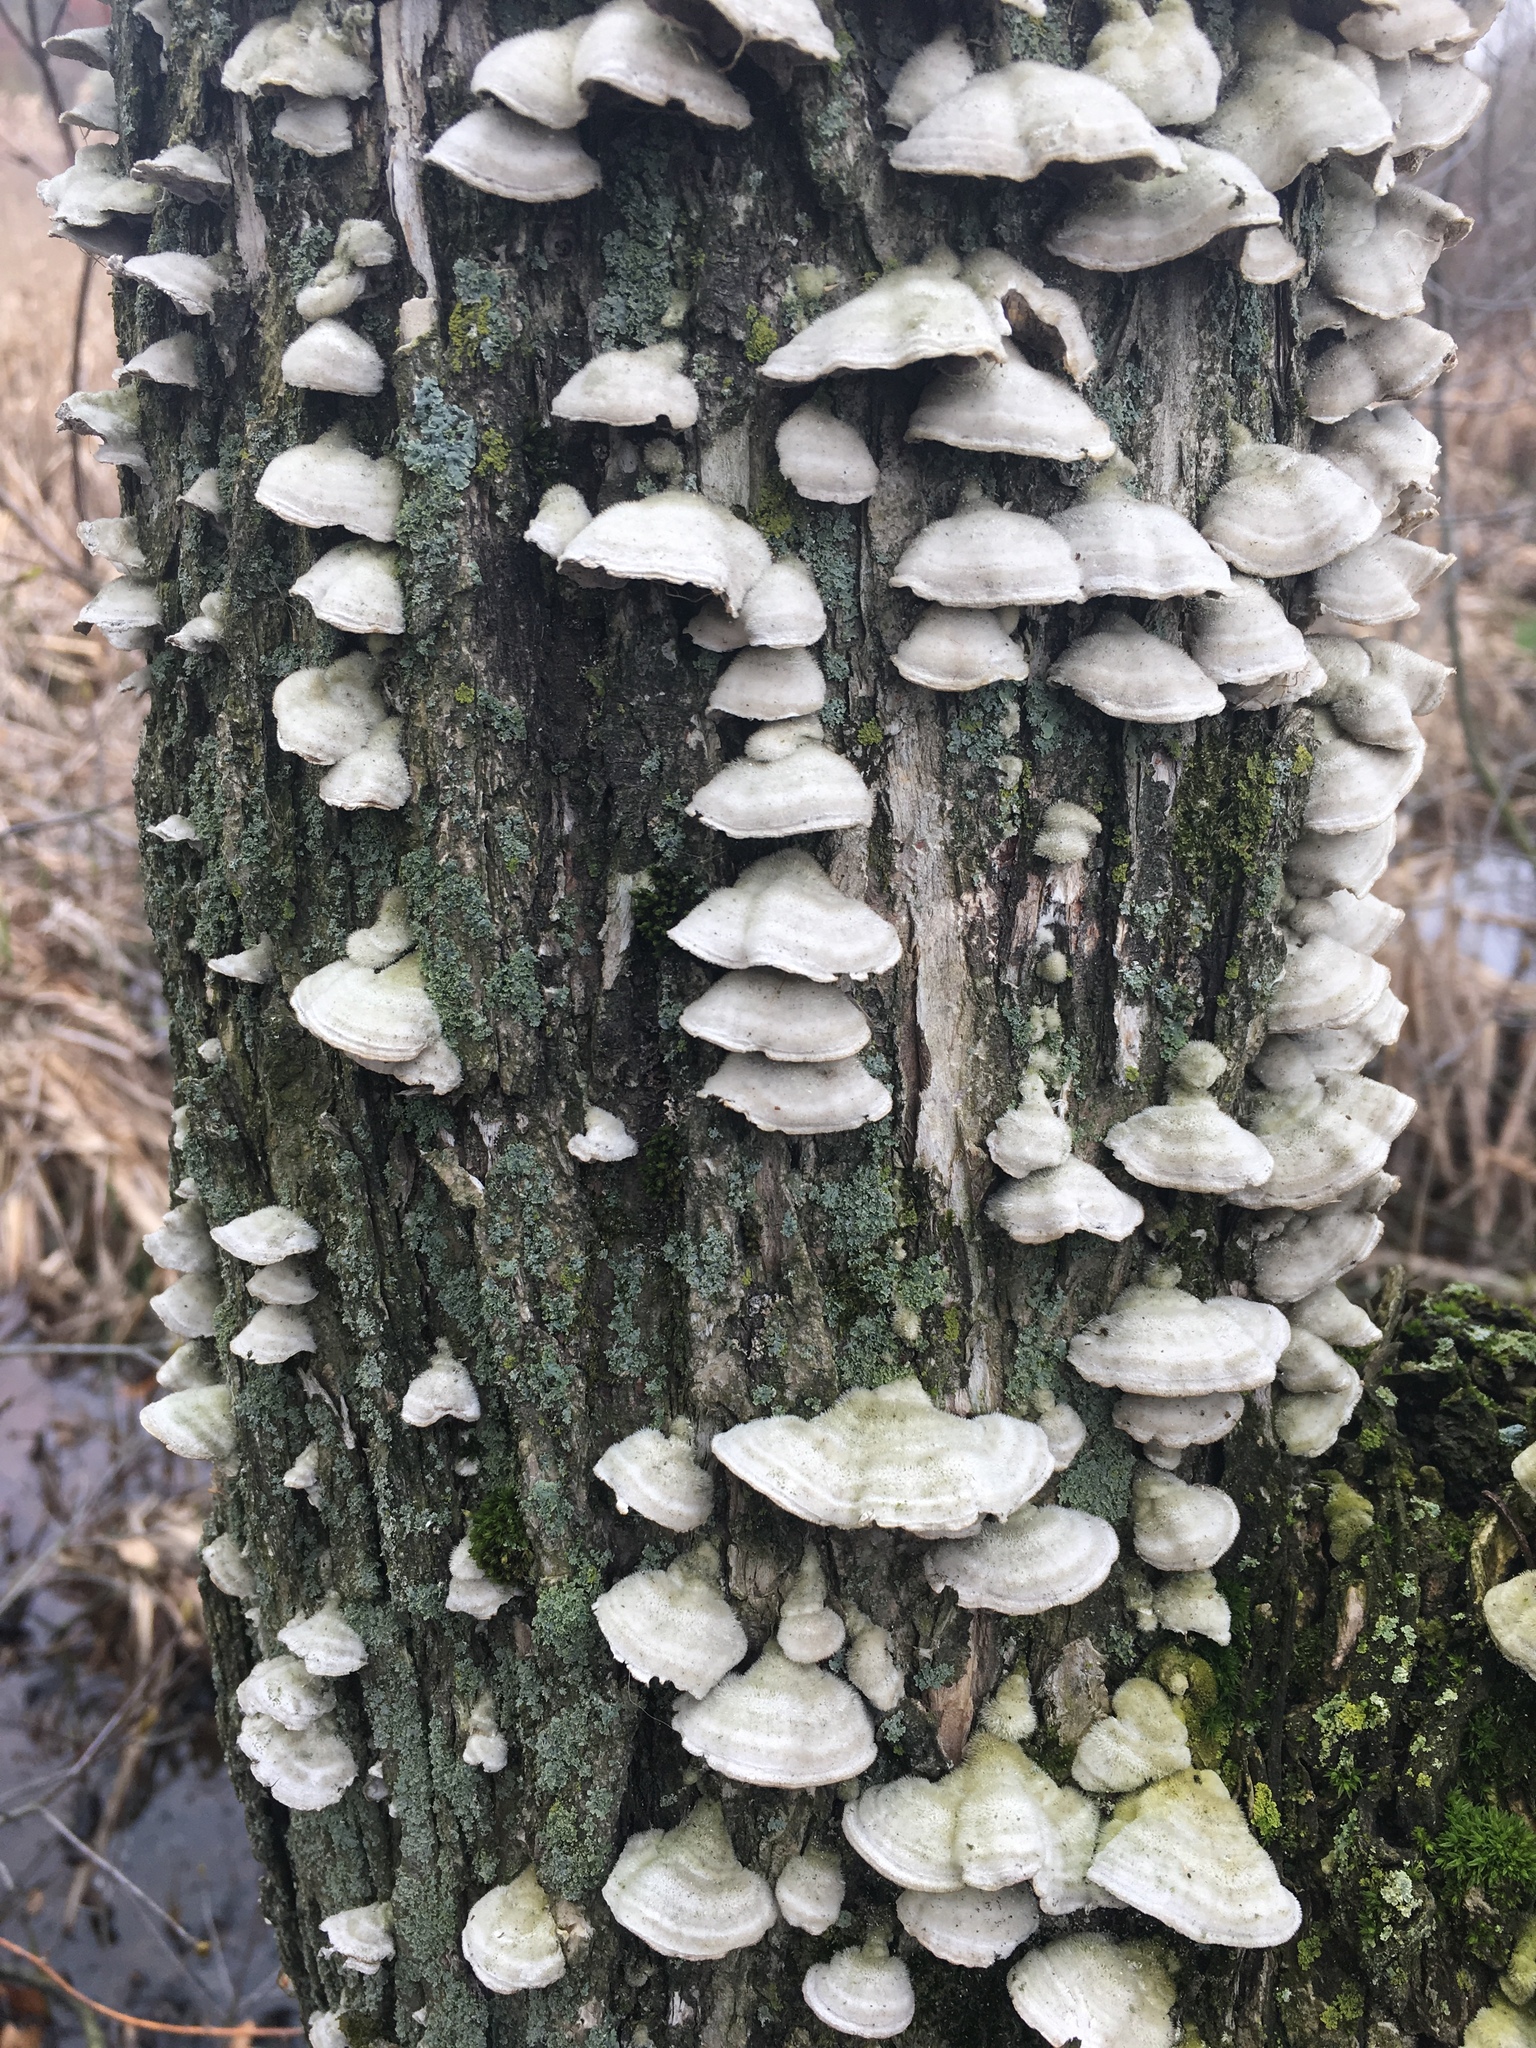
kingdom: Fungi
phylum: Basidiomycota
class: Agaricomycetes
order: Hymenochaetales
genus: Trichaptum
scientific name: Trichaptum abietinum
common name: Purplepore bracket
